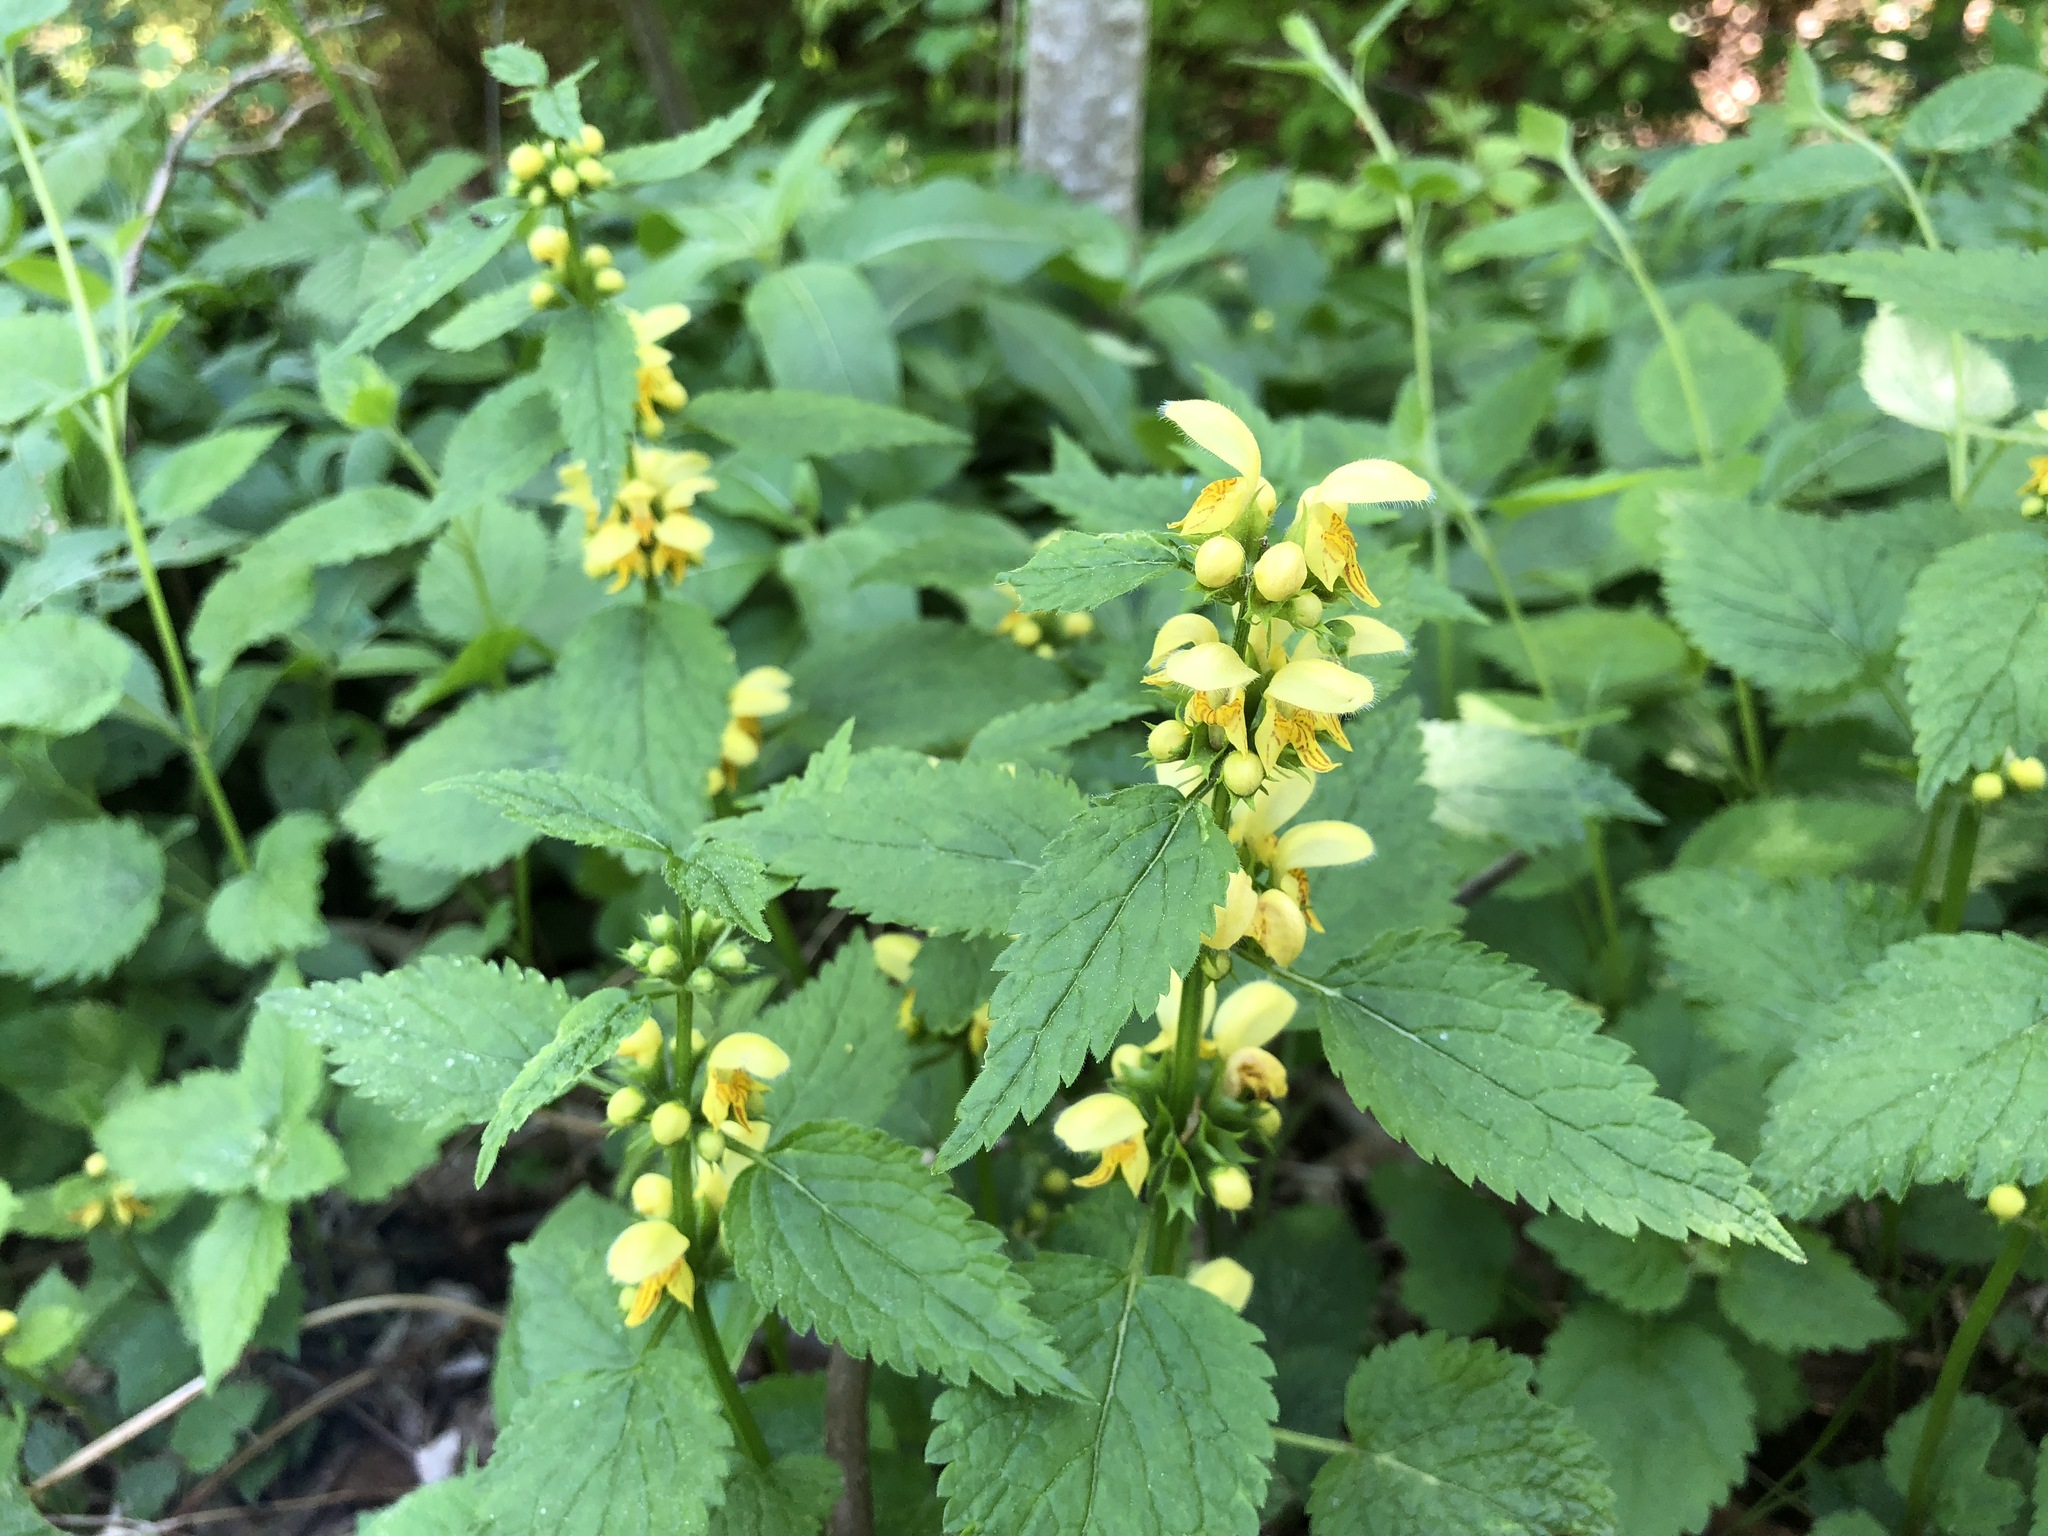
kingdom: Plantae
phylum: Tracheophyta
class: Magnoliopsida
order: Lamiales
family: Lamiaceae
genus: Lamium
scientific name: Lamium galeobdolon
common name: Yellow archangel
